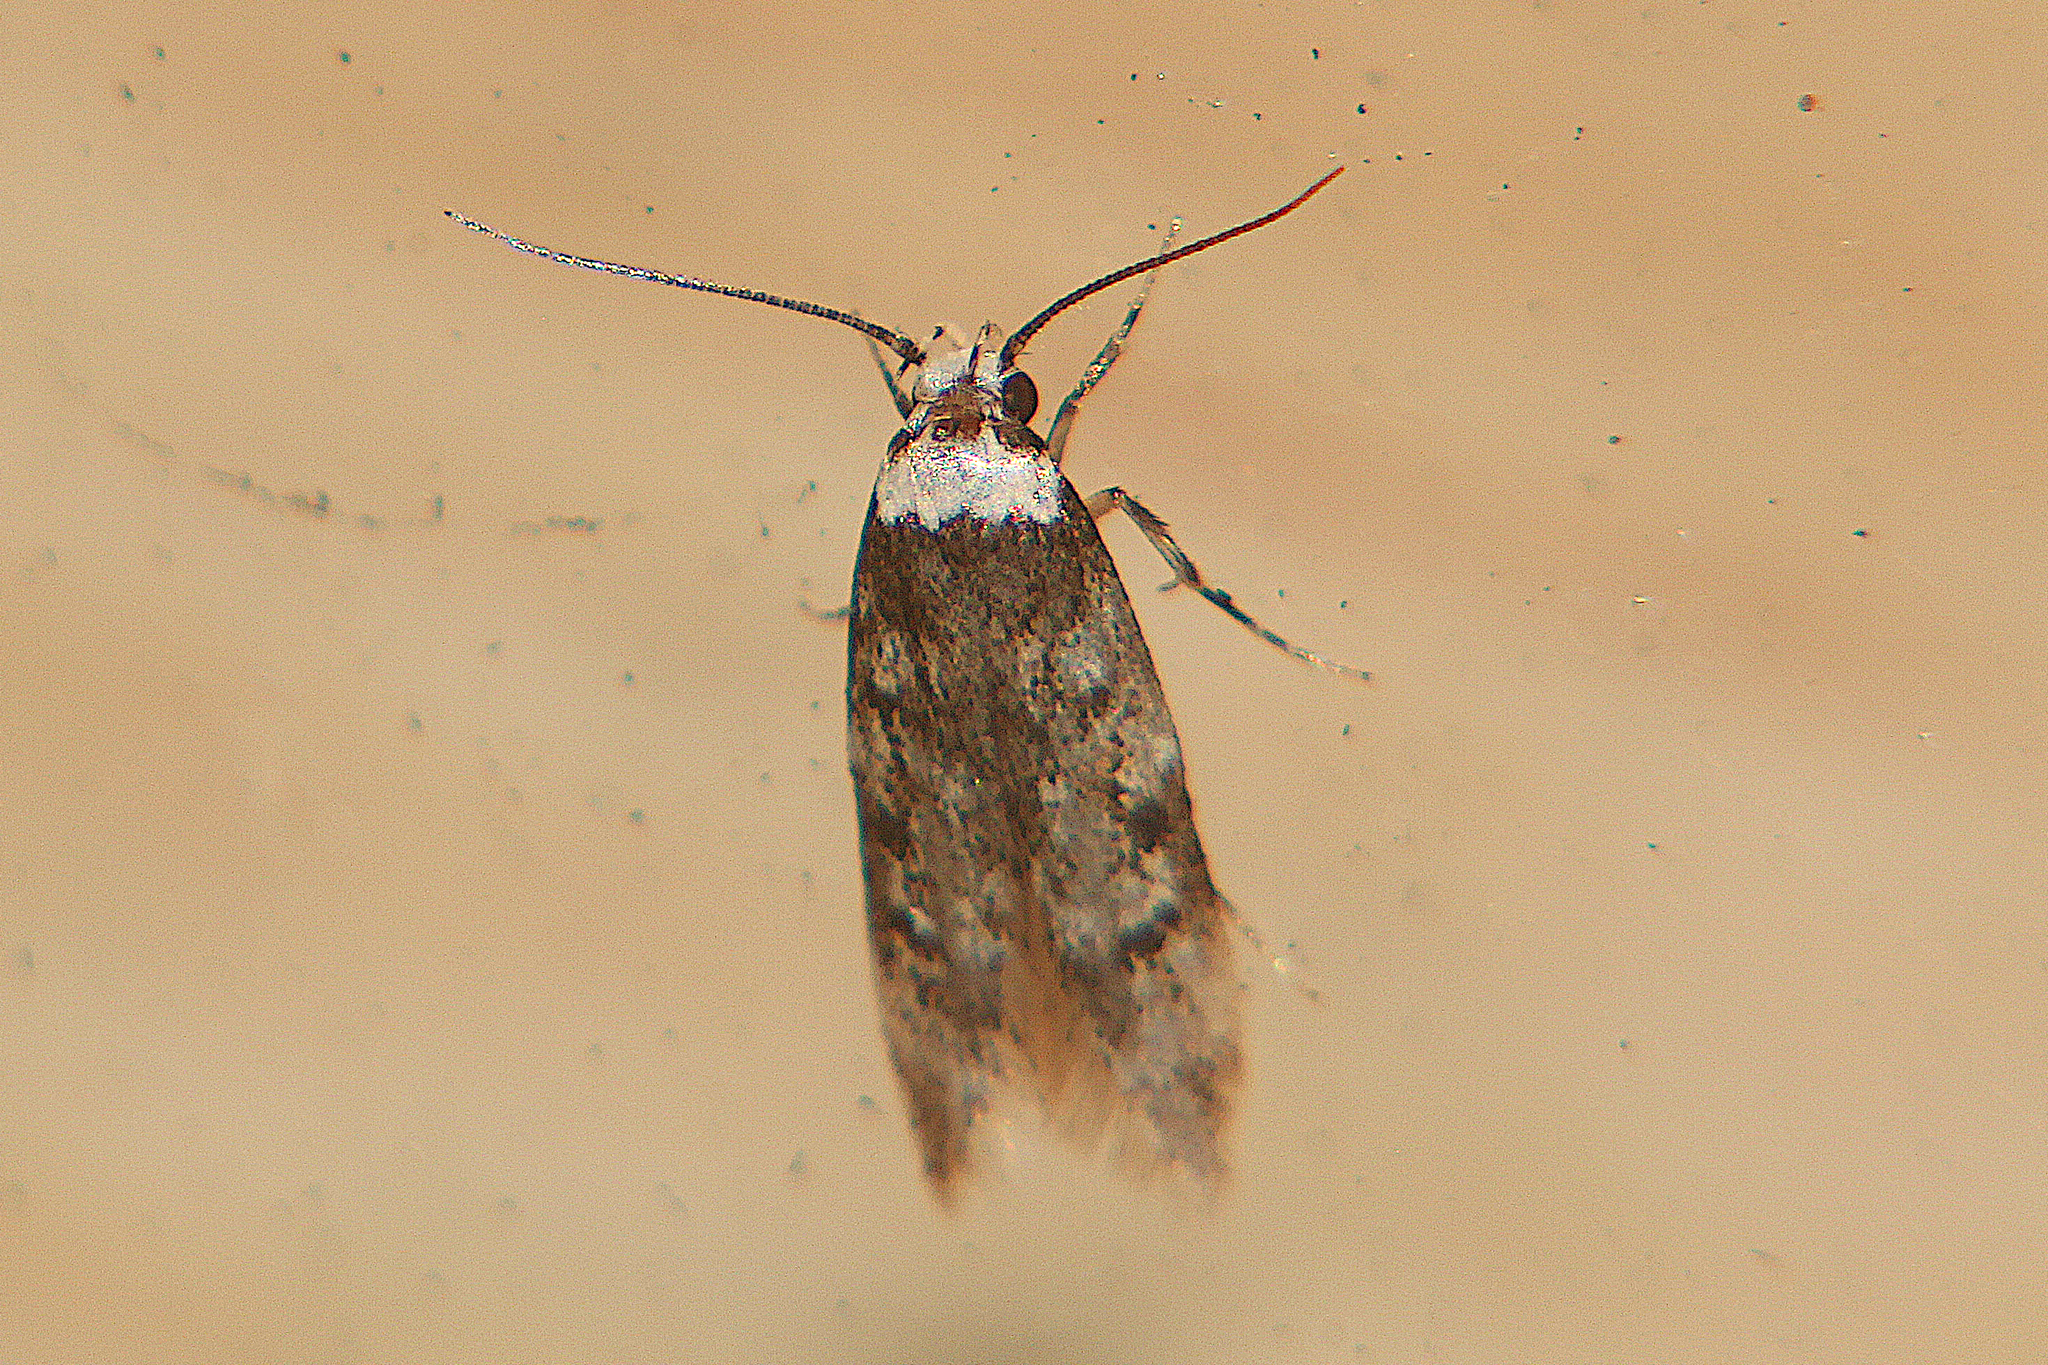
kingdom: Animalia
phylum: Arthropoda
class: Insecta
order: Lepidoptera
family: Oecophoridae
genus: Endrosis
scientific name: Endrosis sarcitrella
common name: White-shouldered house moth
